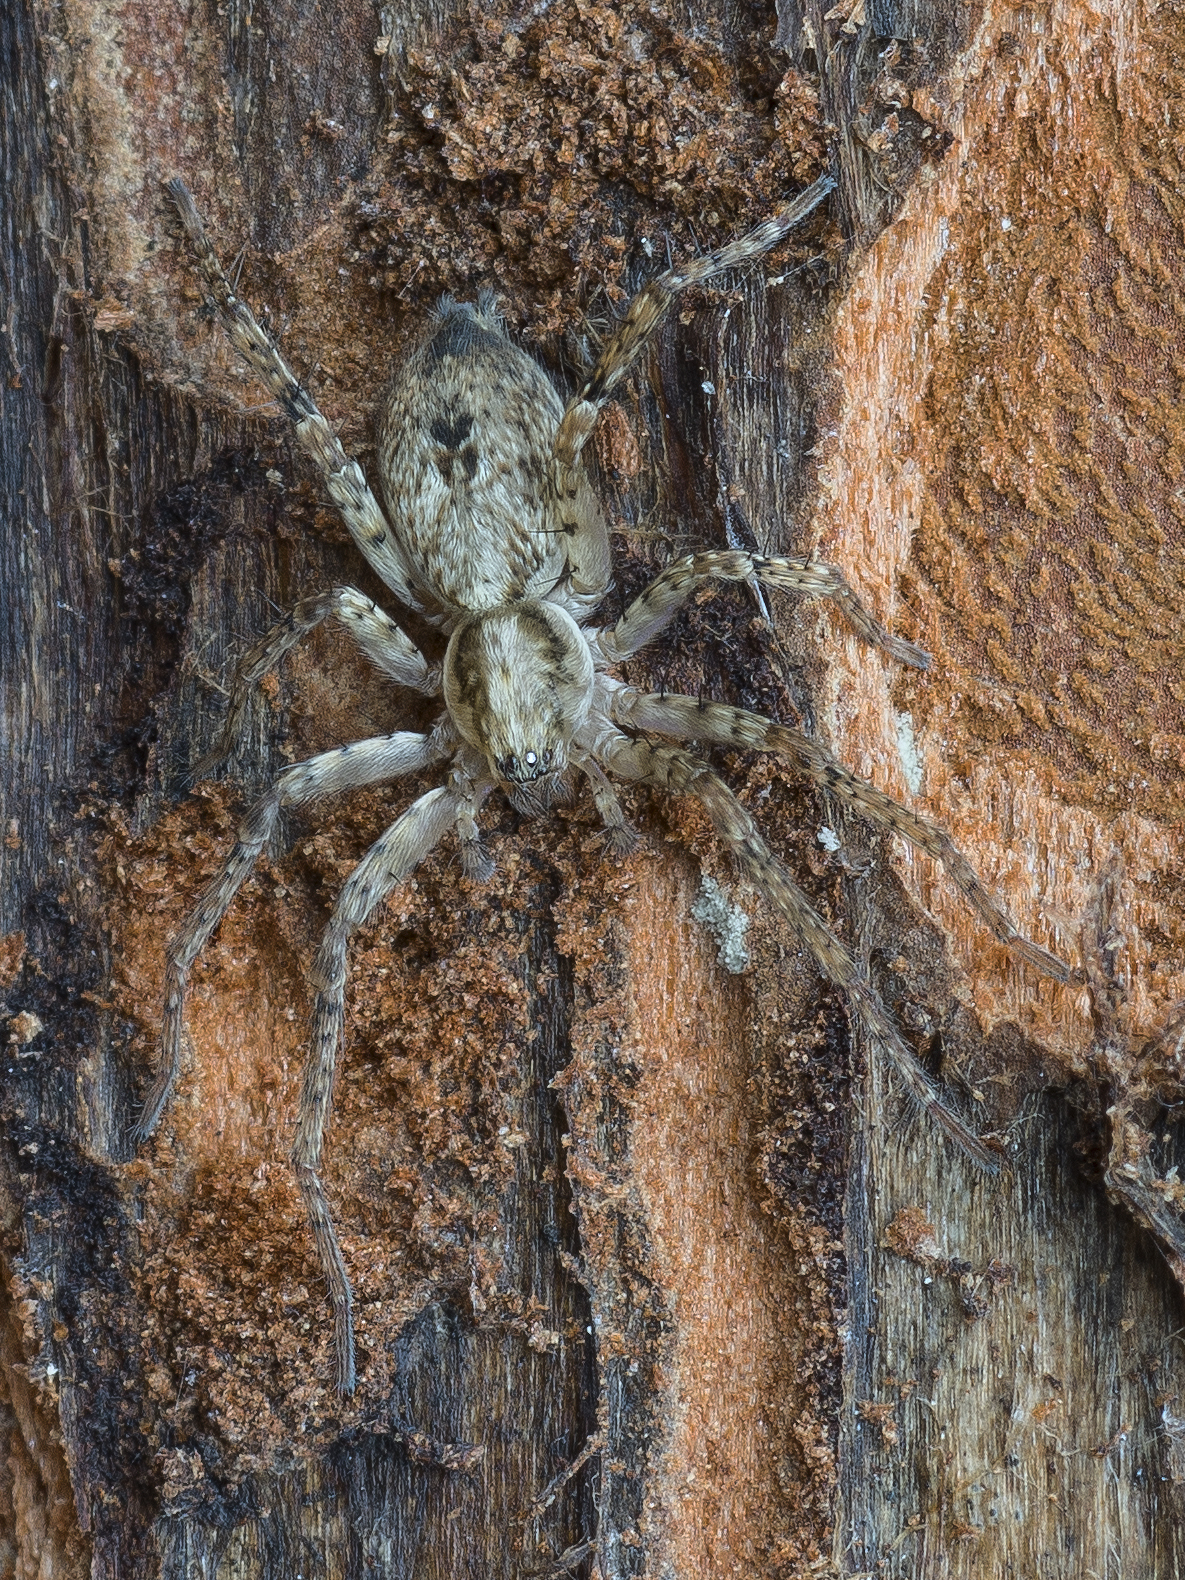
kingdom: Animalia
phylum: Arthropoda
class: Arachnida
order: Araneae
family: Anyphaenidae
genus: Anyphaena
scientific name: Anyphaena accentuata
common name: Buzzing spider
